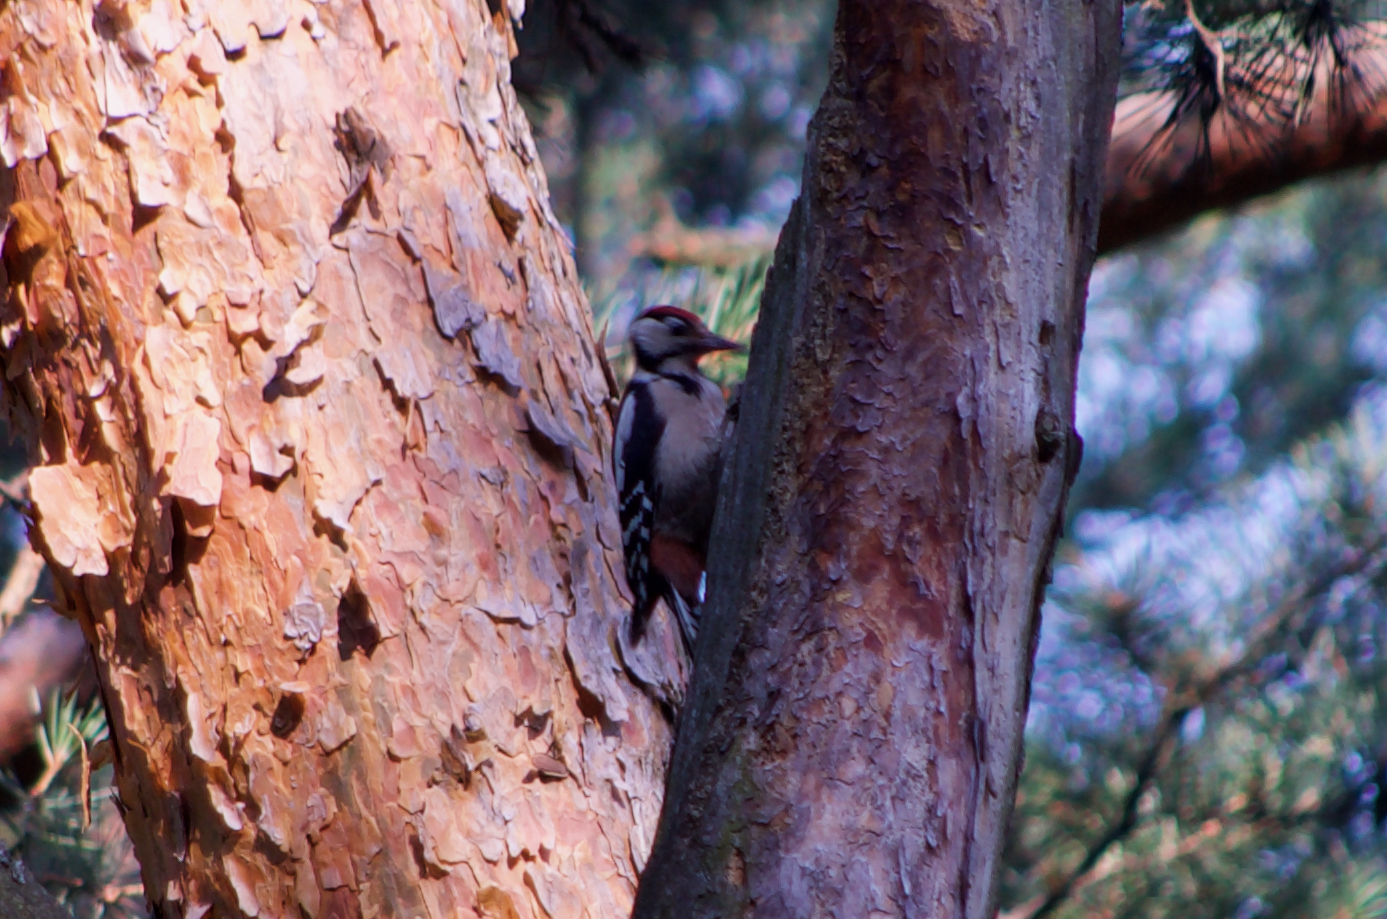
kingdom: Animalia
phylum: Chordata
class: Aves
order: Piciformes
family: Picidae
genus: Dendrocopos
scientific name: Dendrocopos major
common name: Great spotted woodpecker
